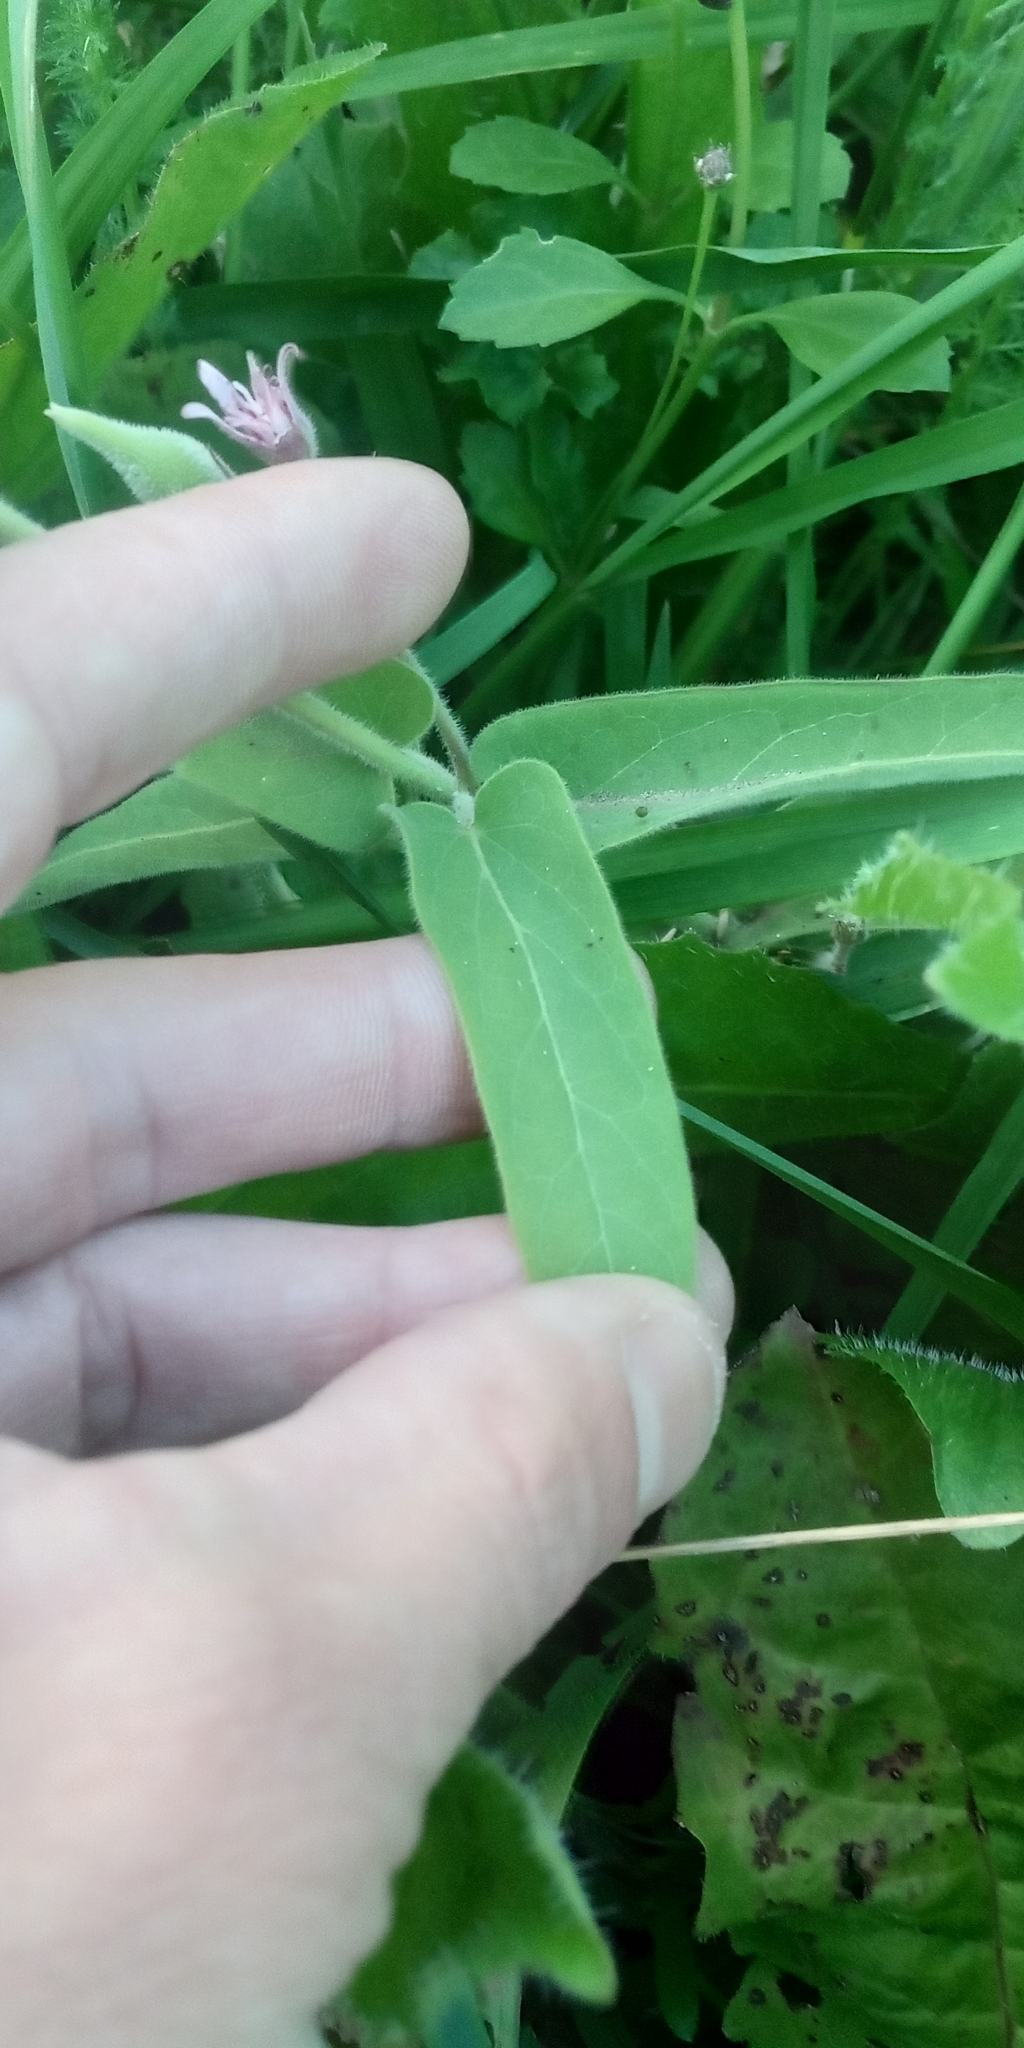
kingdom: Plantae
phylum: Tracheophyta
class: Magnoliopsida
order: Gentianales
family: Apocynaceae
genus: Oxypetalum
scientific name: Oxypetalum solanoides
